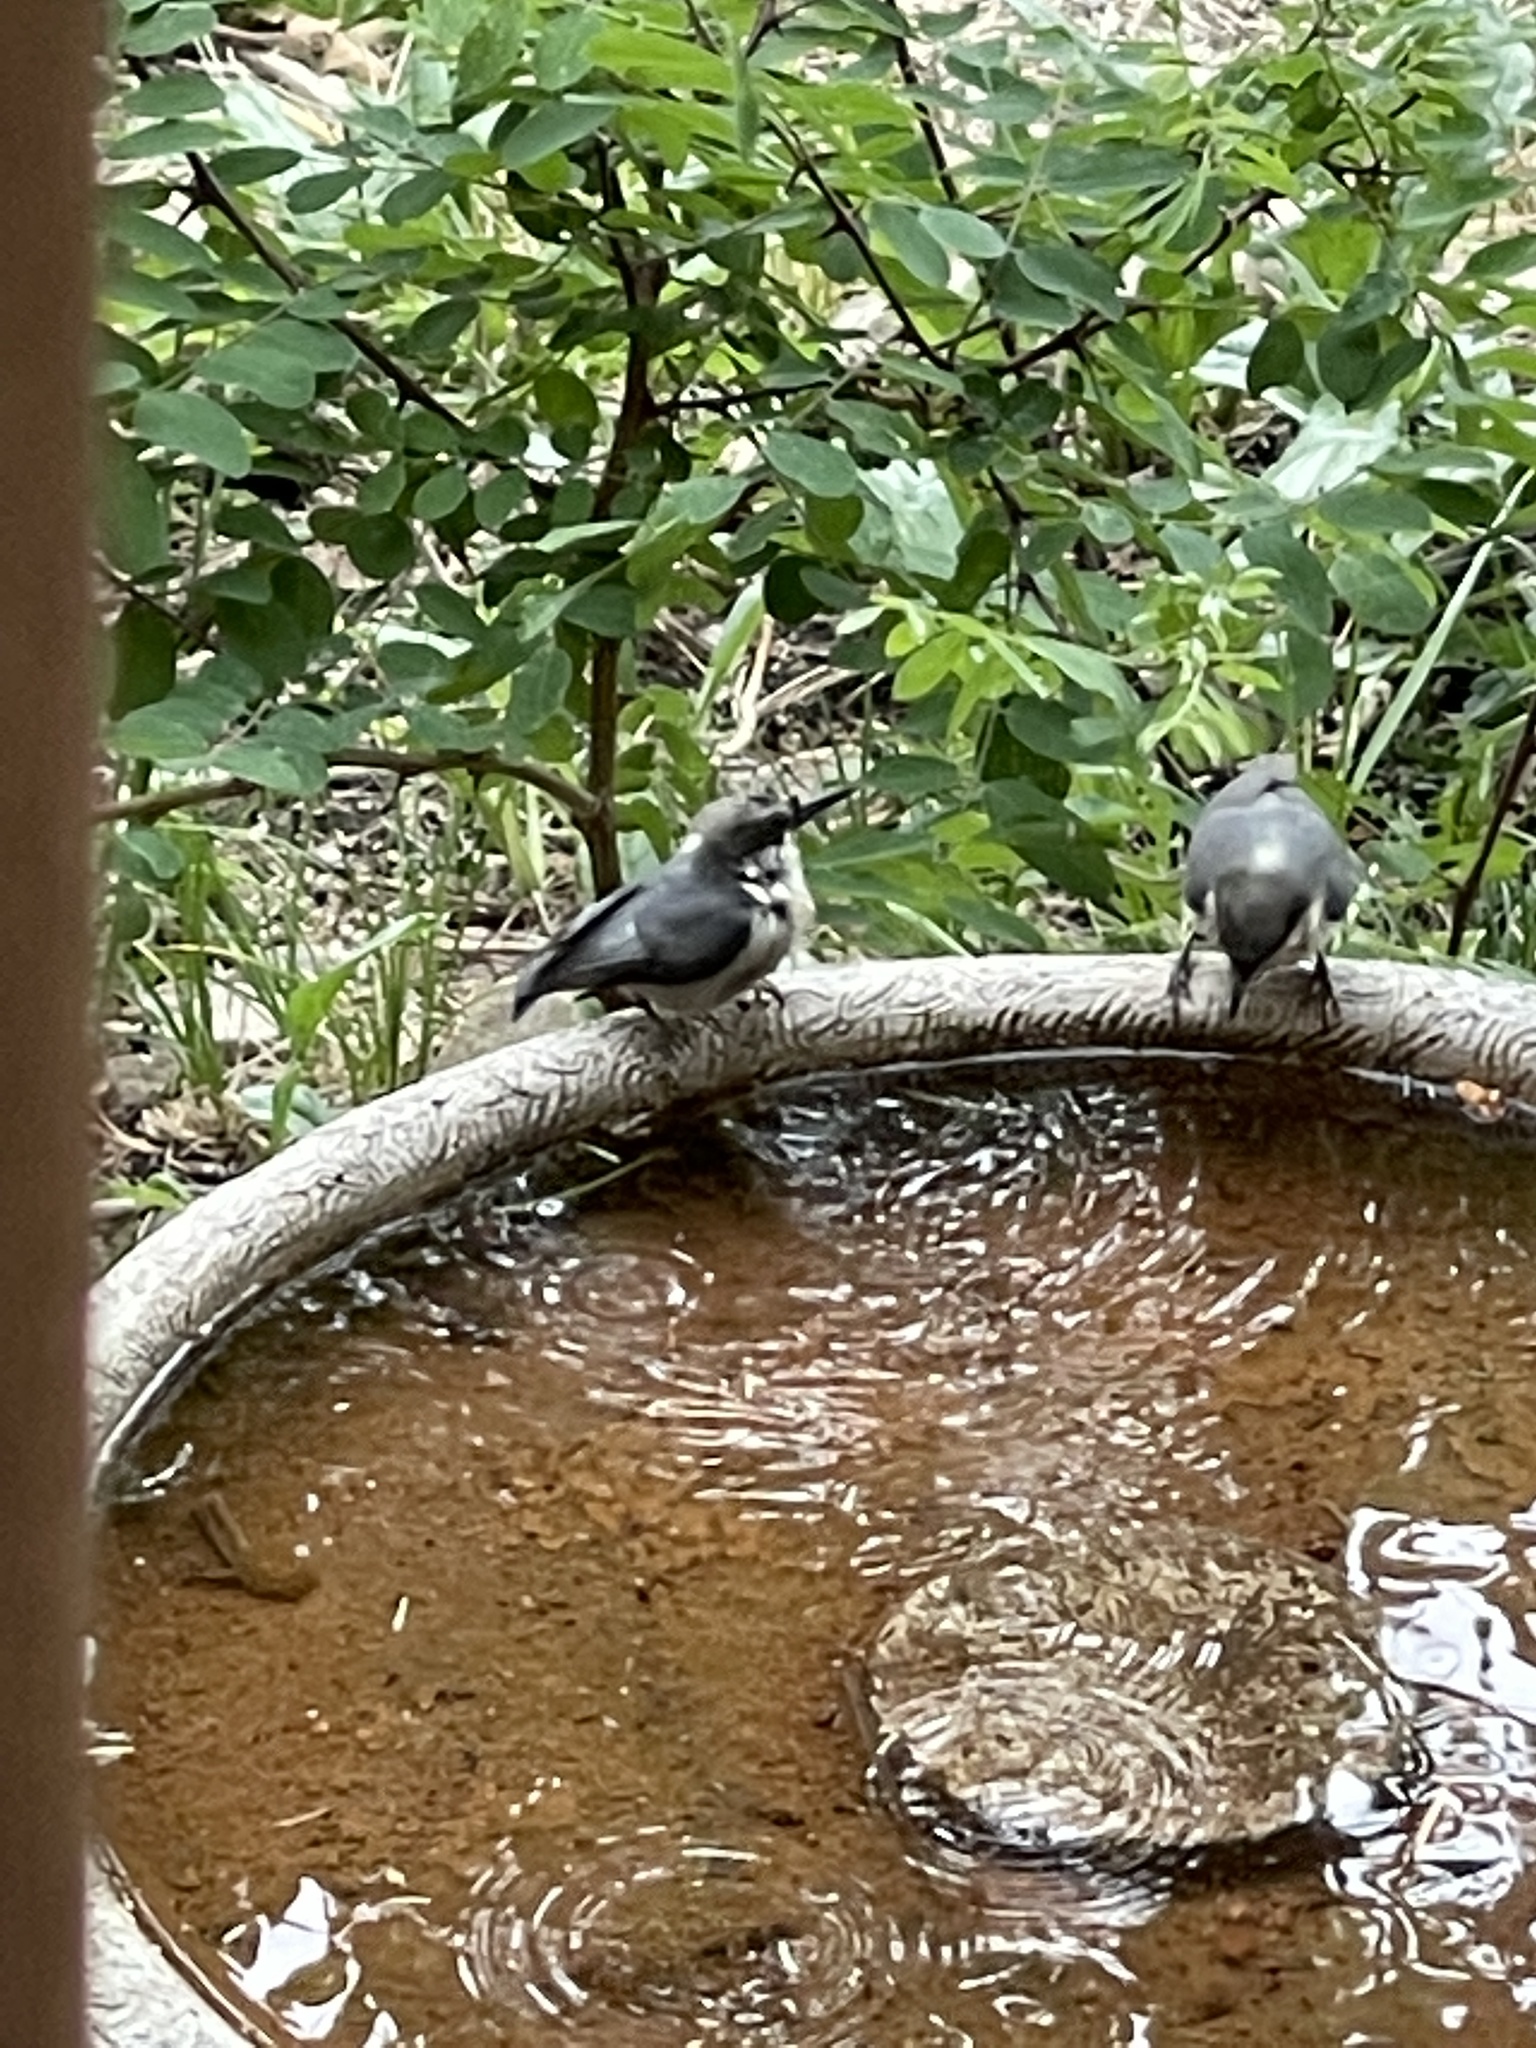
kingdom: Animalia
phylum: Chordata
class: Aves
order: Passeriformes
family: Sittidae
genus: Sitta
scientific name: Sitta pygmaea
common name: Pygmy nuthatch
